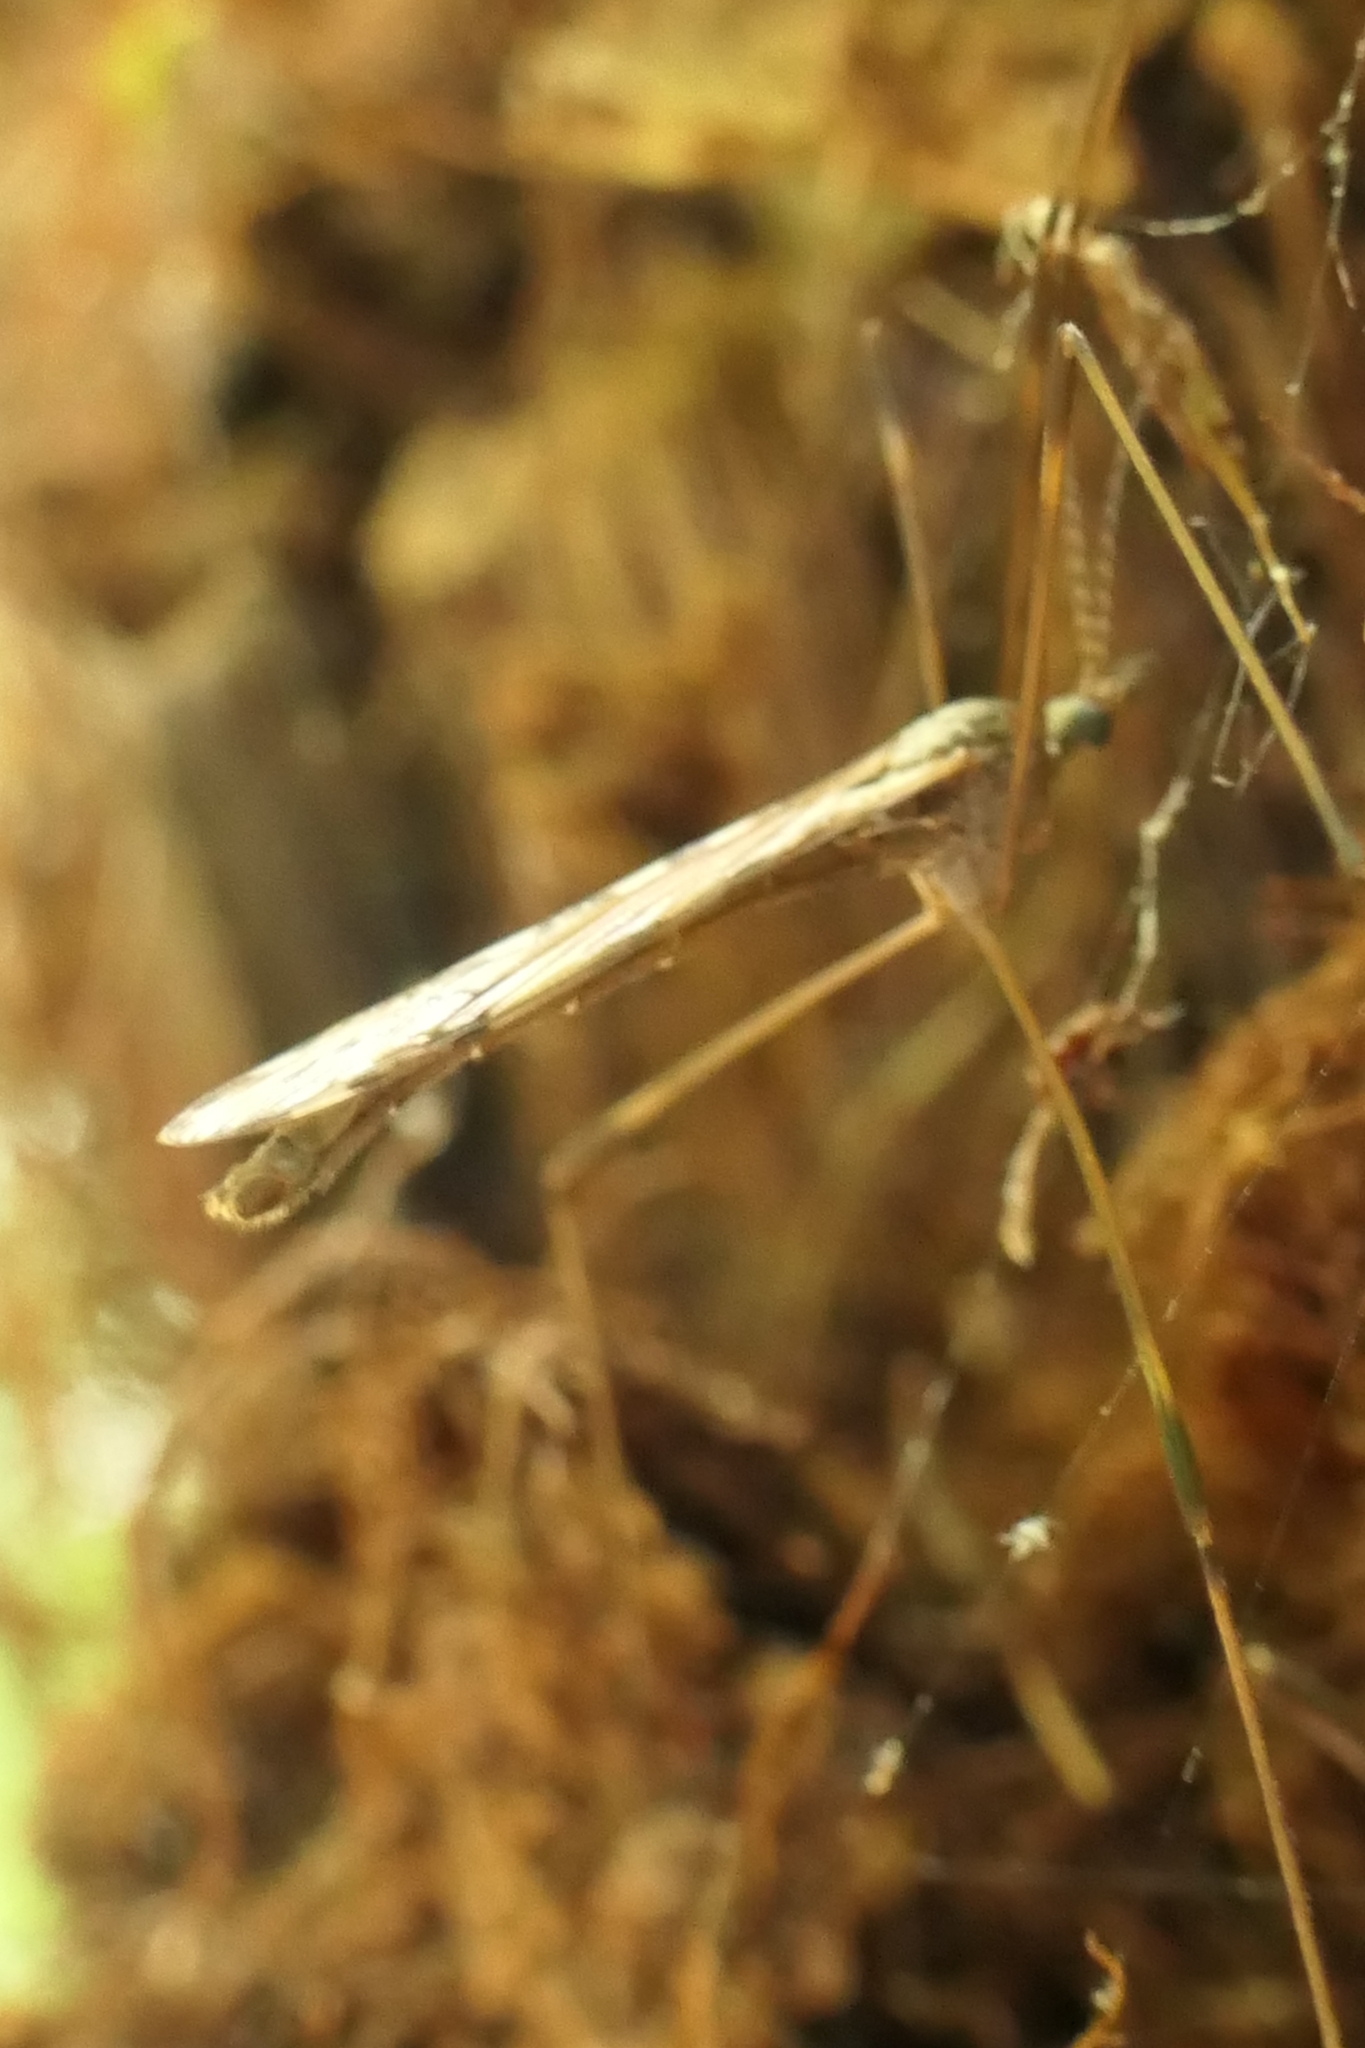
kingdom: Animalia
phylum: Arthropoda
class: Insecta
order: Diptera
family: Limoniidae
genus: Paralimnophila
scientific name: Paralimnophila skusei
